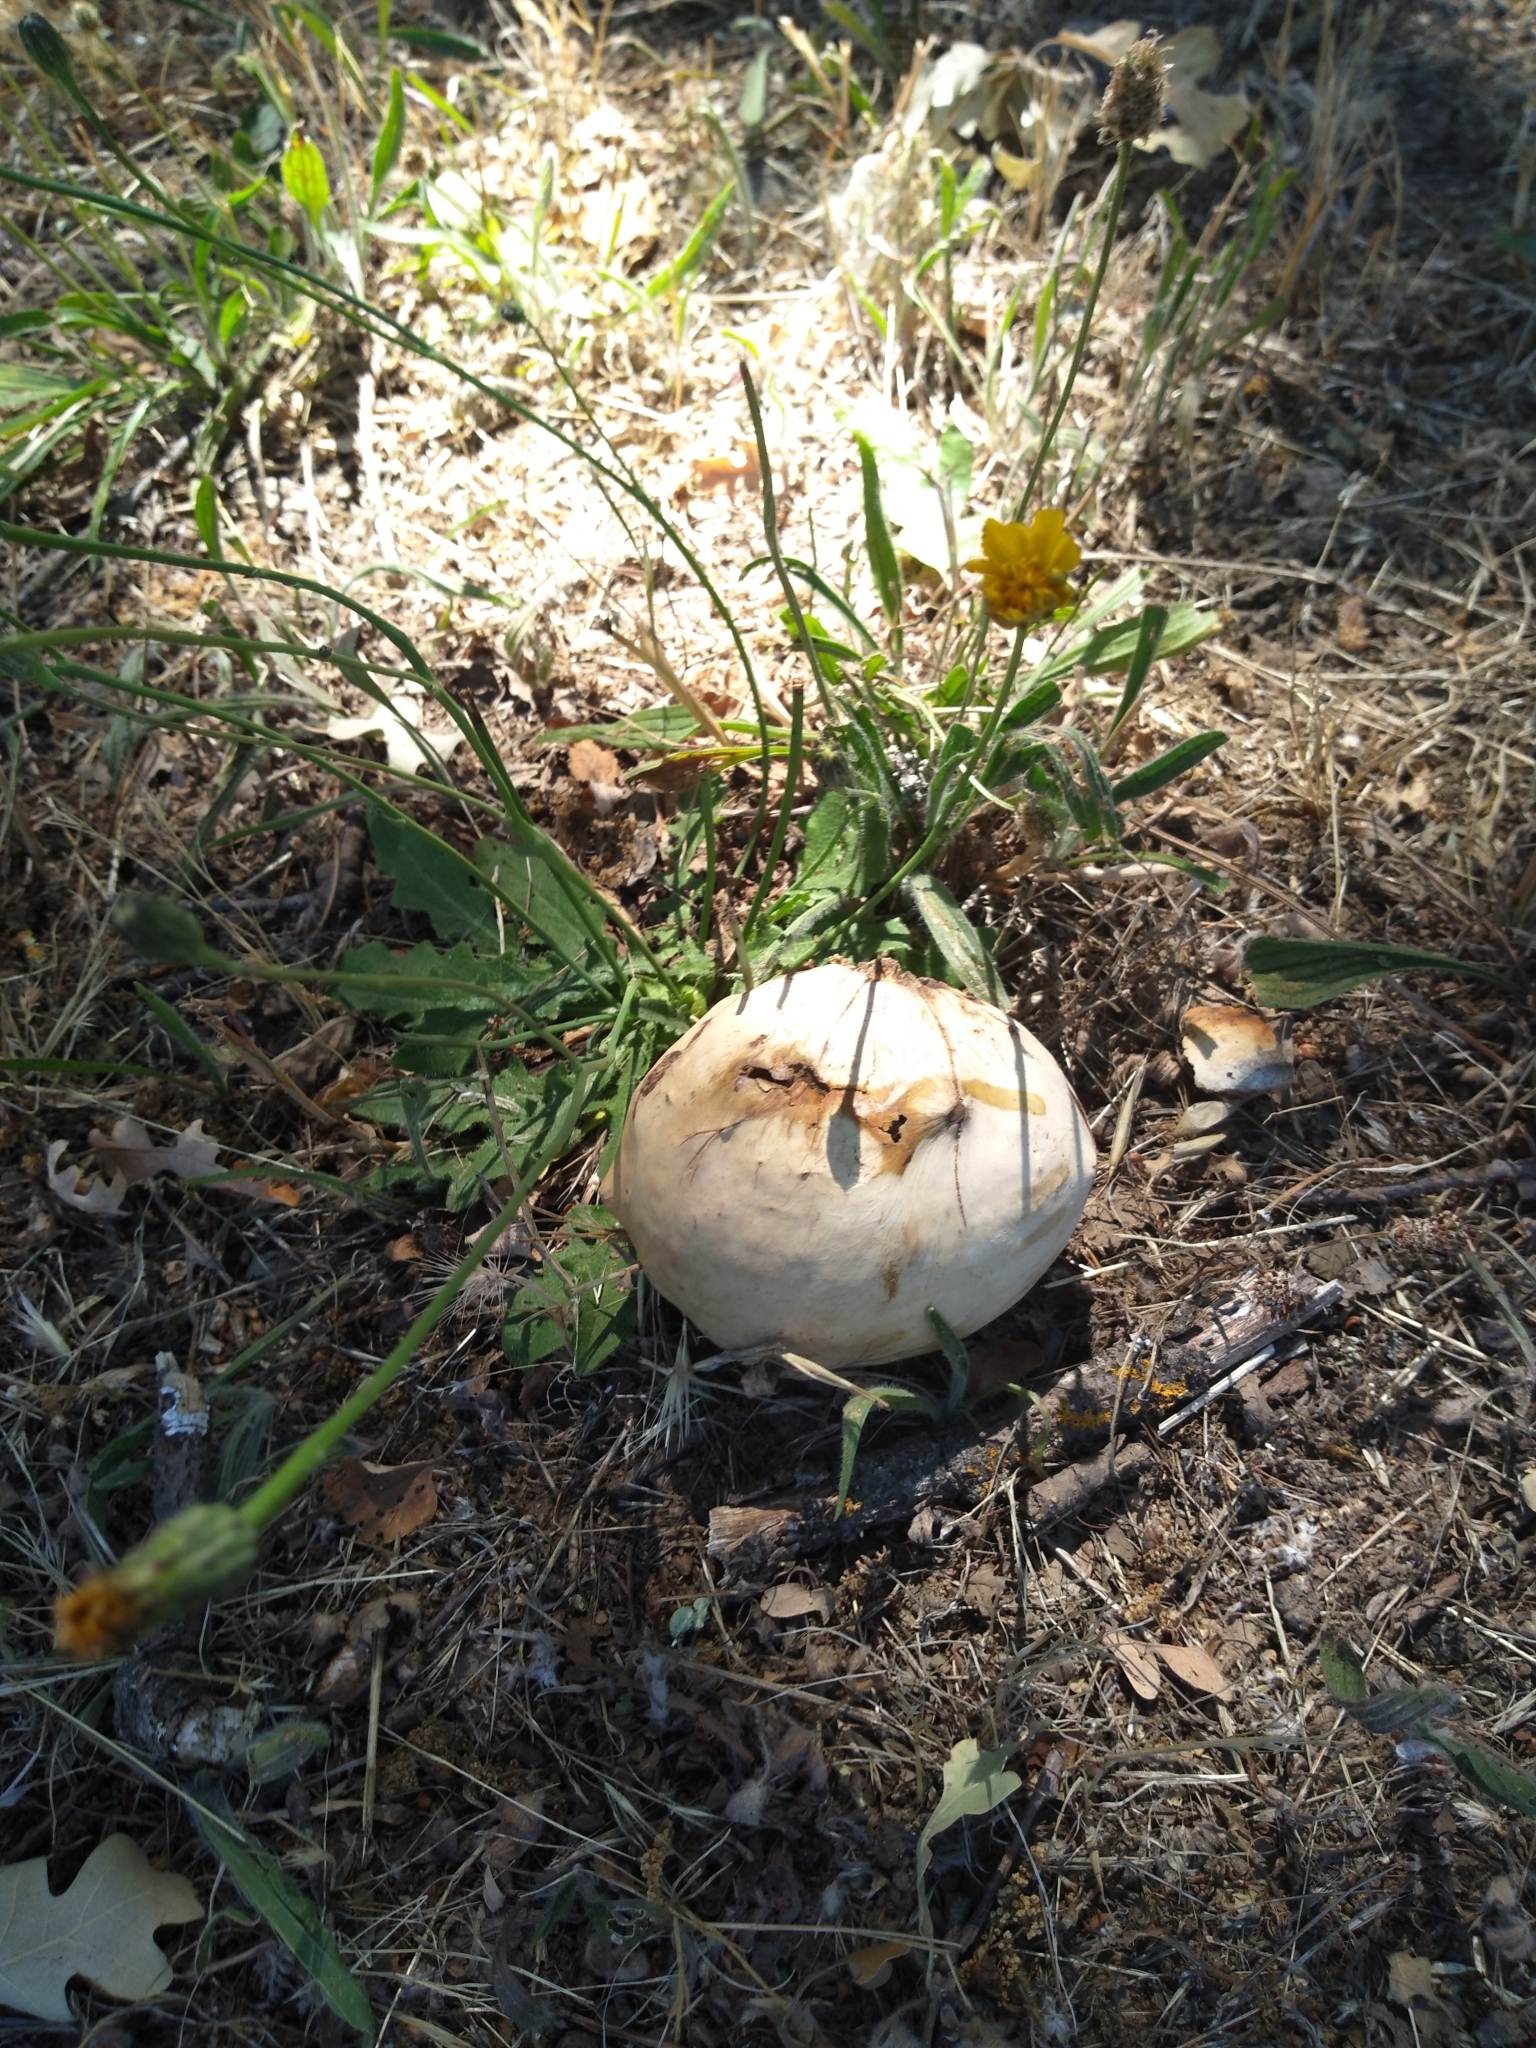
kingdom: Animalia
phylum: Arthropoda
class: Insecta
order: Hymenoptera
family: Cynipidae
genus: Andricus
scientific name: Andricus quercuscalifornicus
